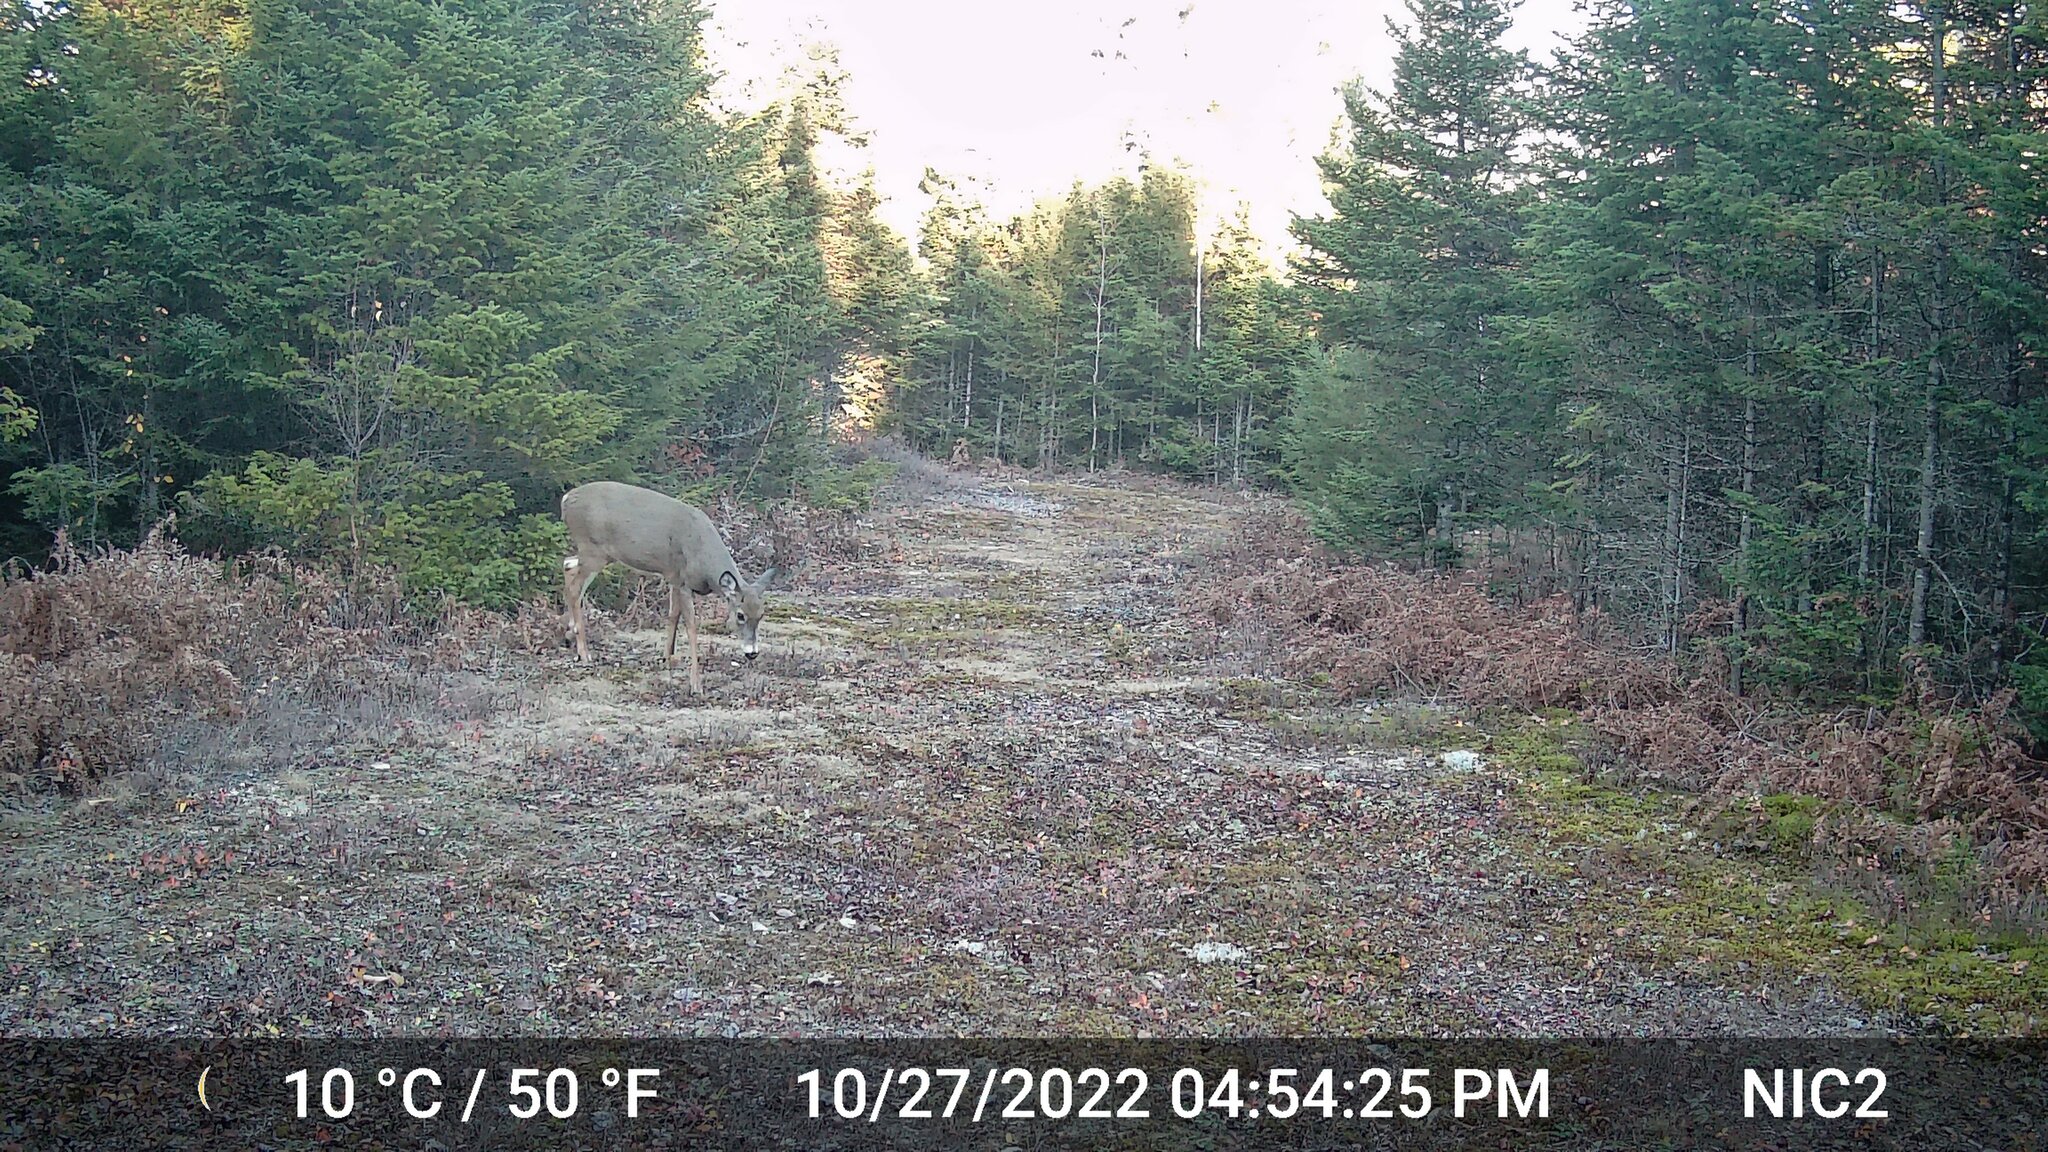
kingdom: Animalia
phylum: Chordata
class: Mammalia
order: Artiodactyla
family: Cervidae
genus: Odocoileus
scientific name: Odocoileus virginianus
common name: White-tailed deer
